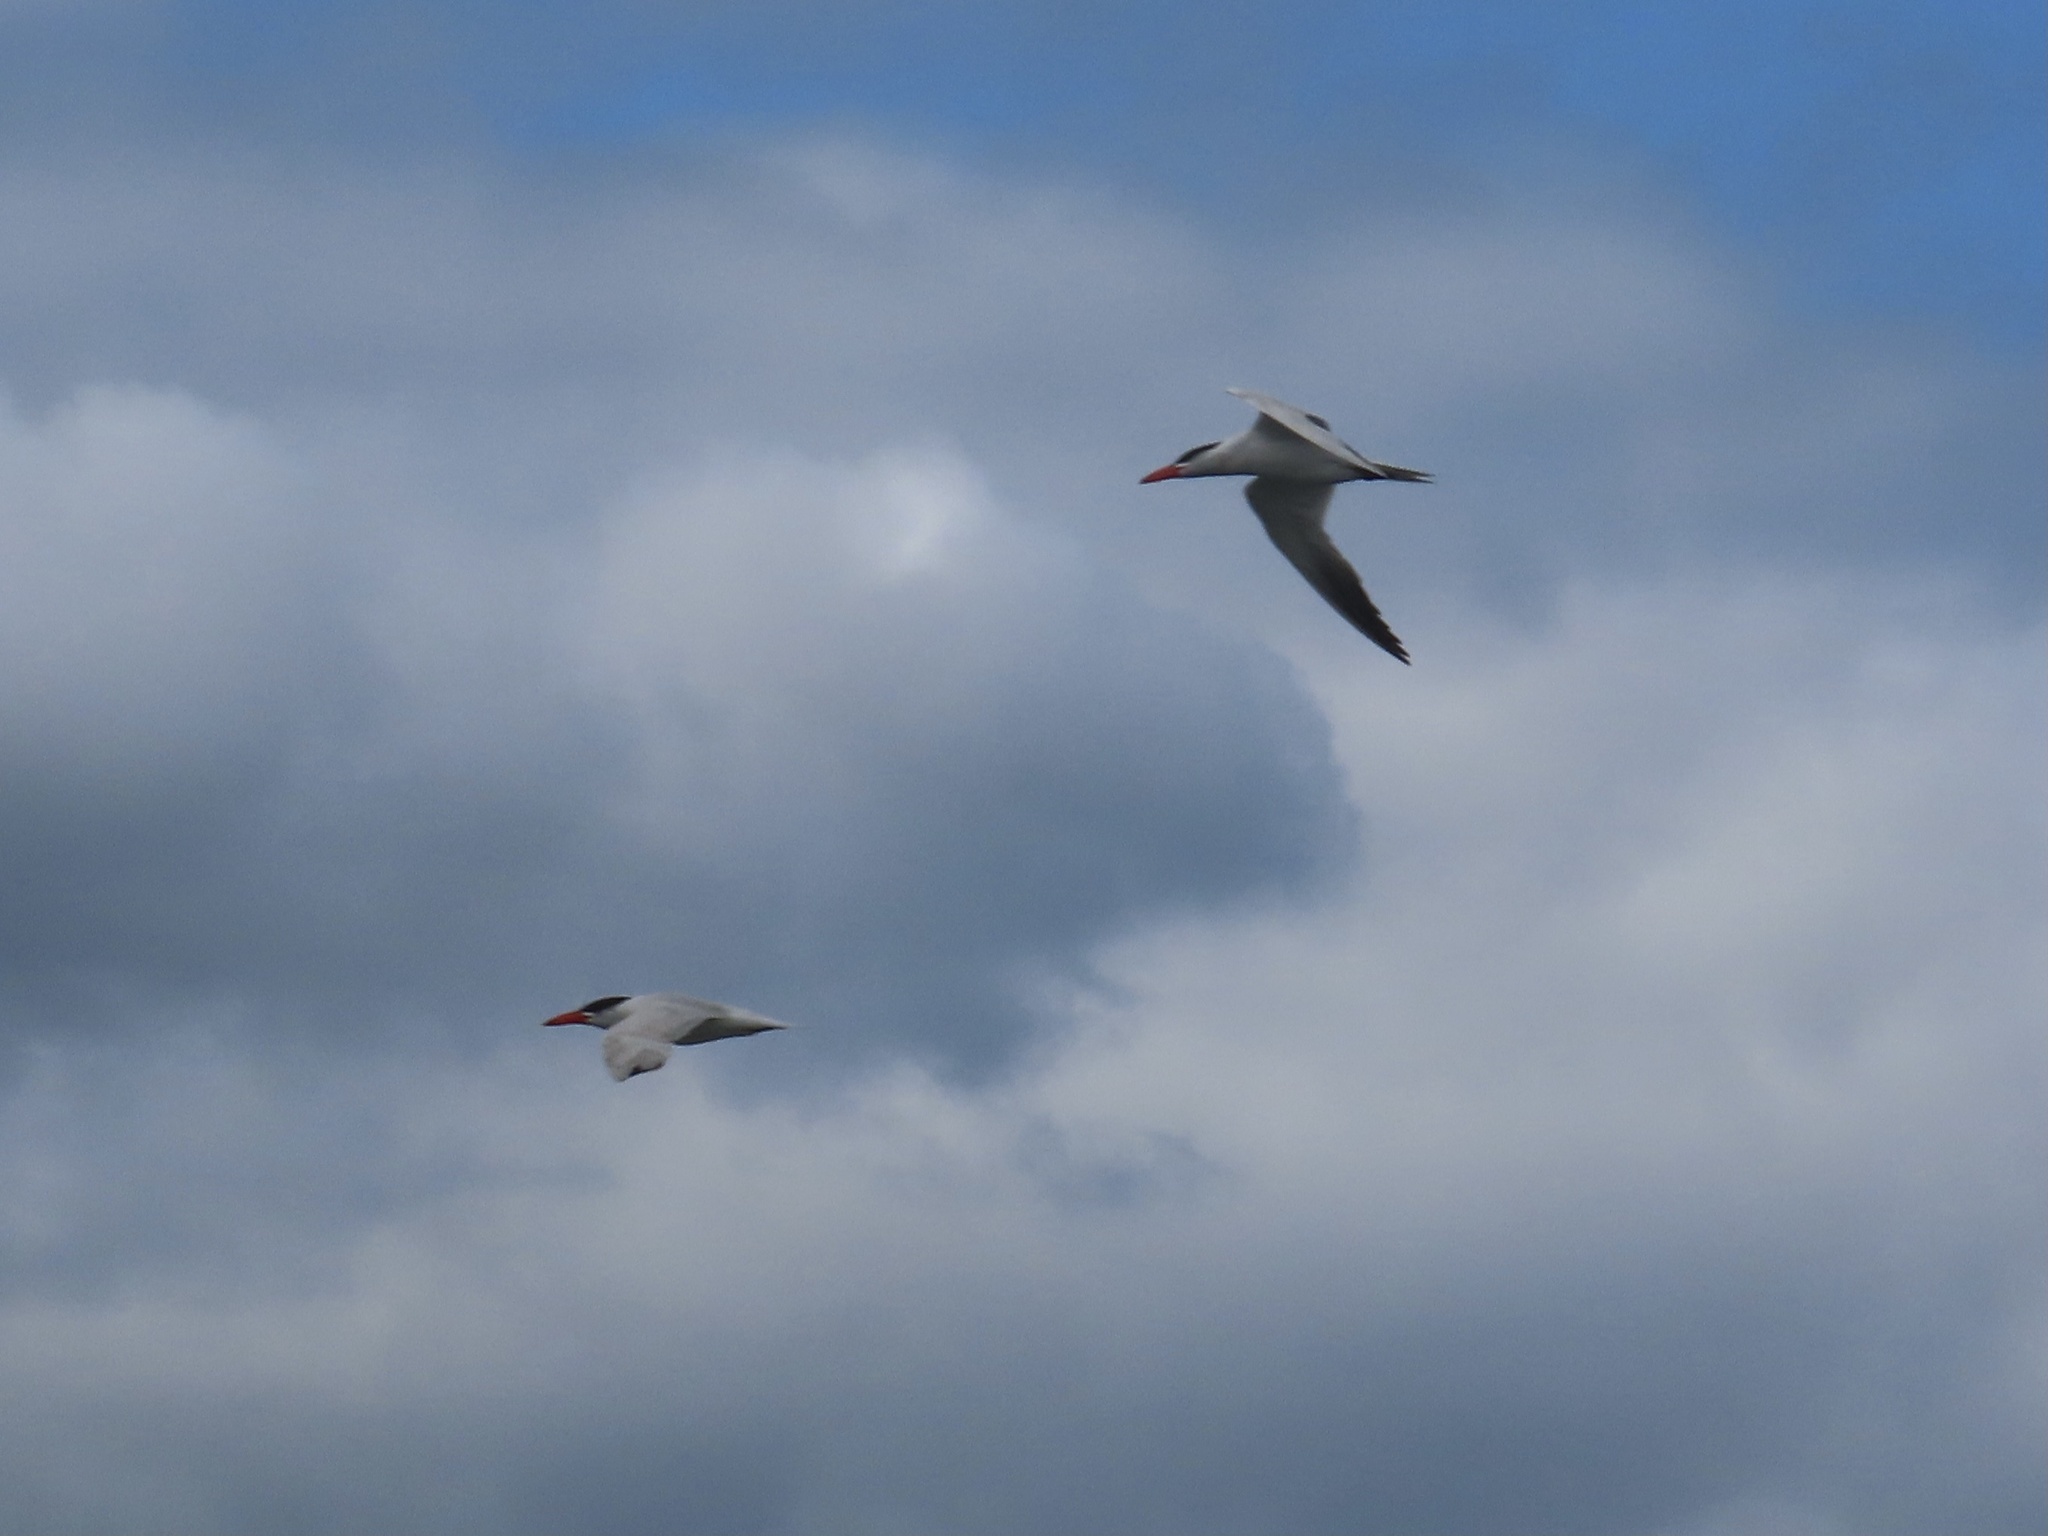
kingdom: Animalia
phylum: Chordata
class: Aves
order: Charadriiformes
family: Laridae
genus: Hydroprogne
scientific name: Hydroprogne caspia
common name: Caspian tern
